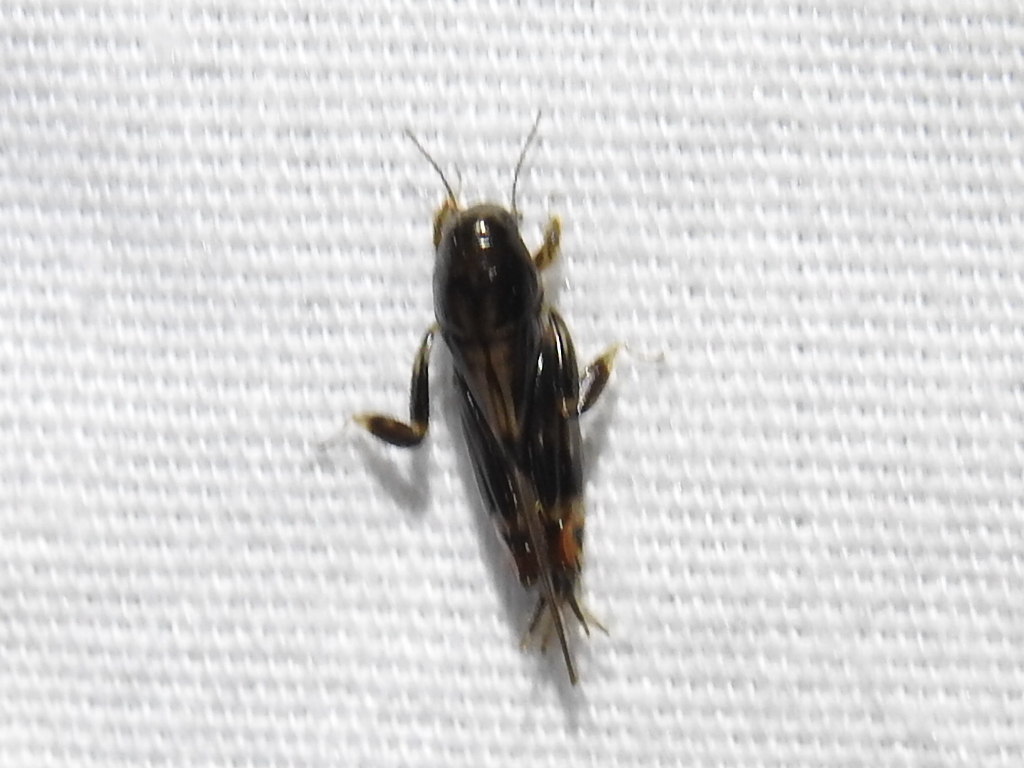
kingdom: Animalia
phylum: Arthropoda
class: Insecta
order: Orthoptera
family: Tridactylidae
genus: Neotridactylus
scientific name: Neotridactylus apicialis
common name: Larger pygmy locust
